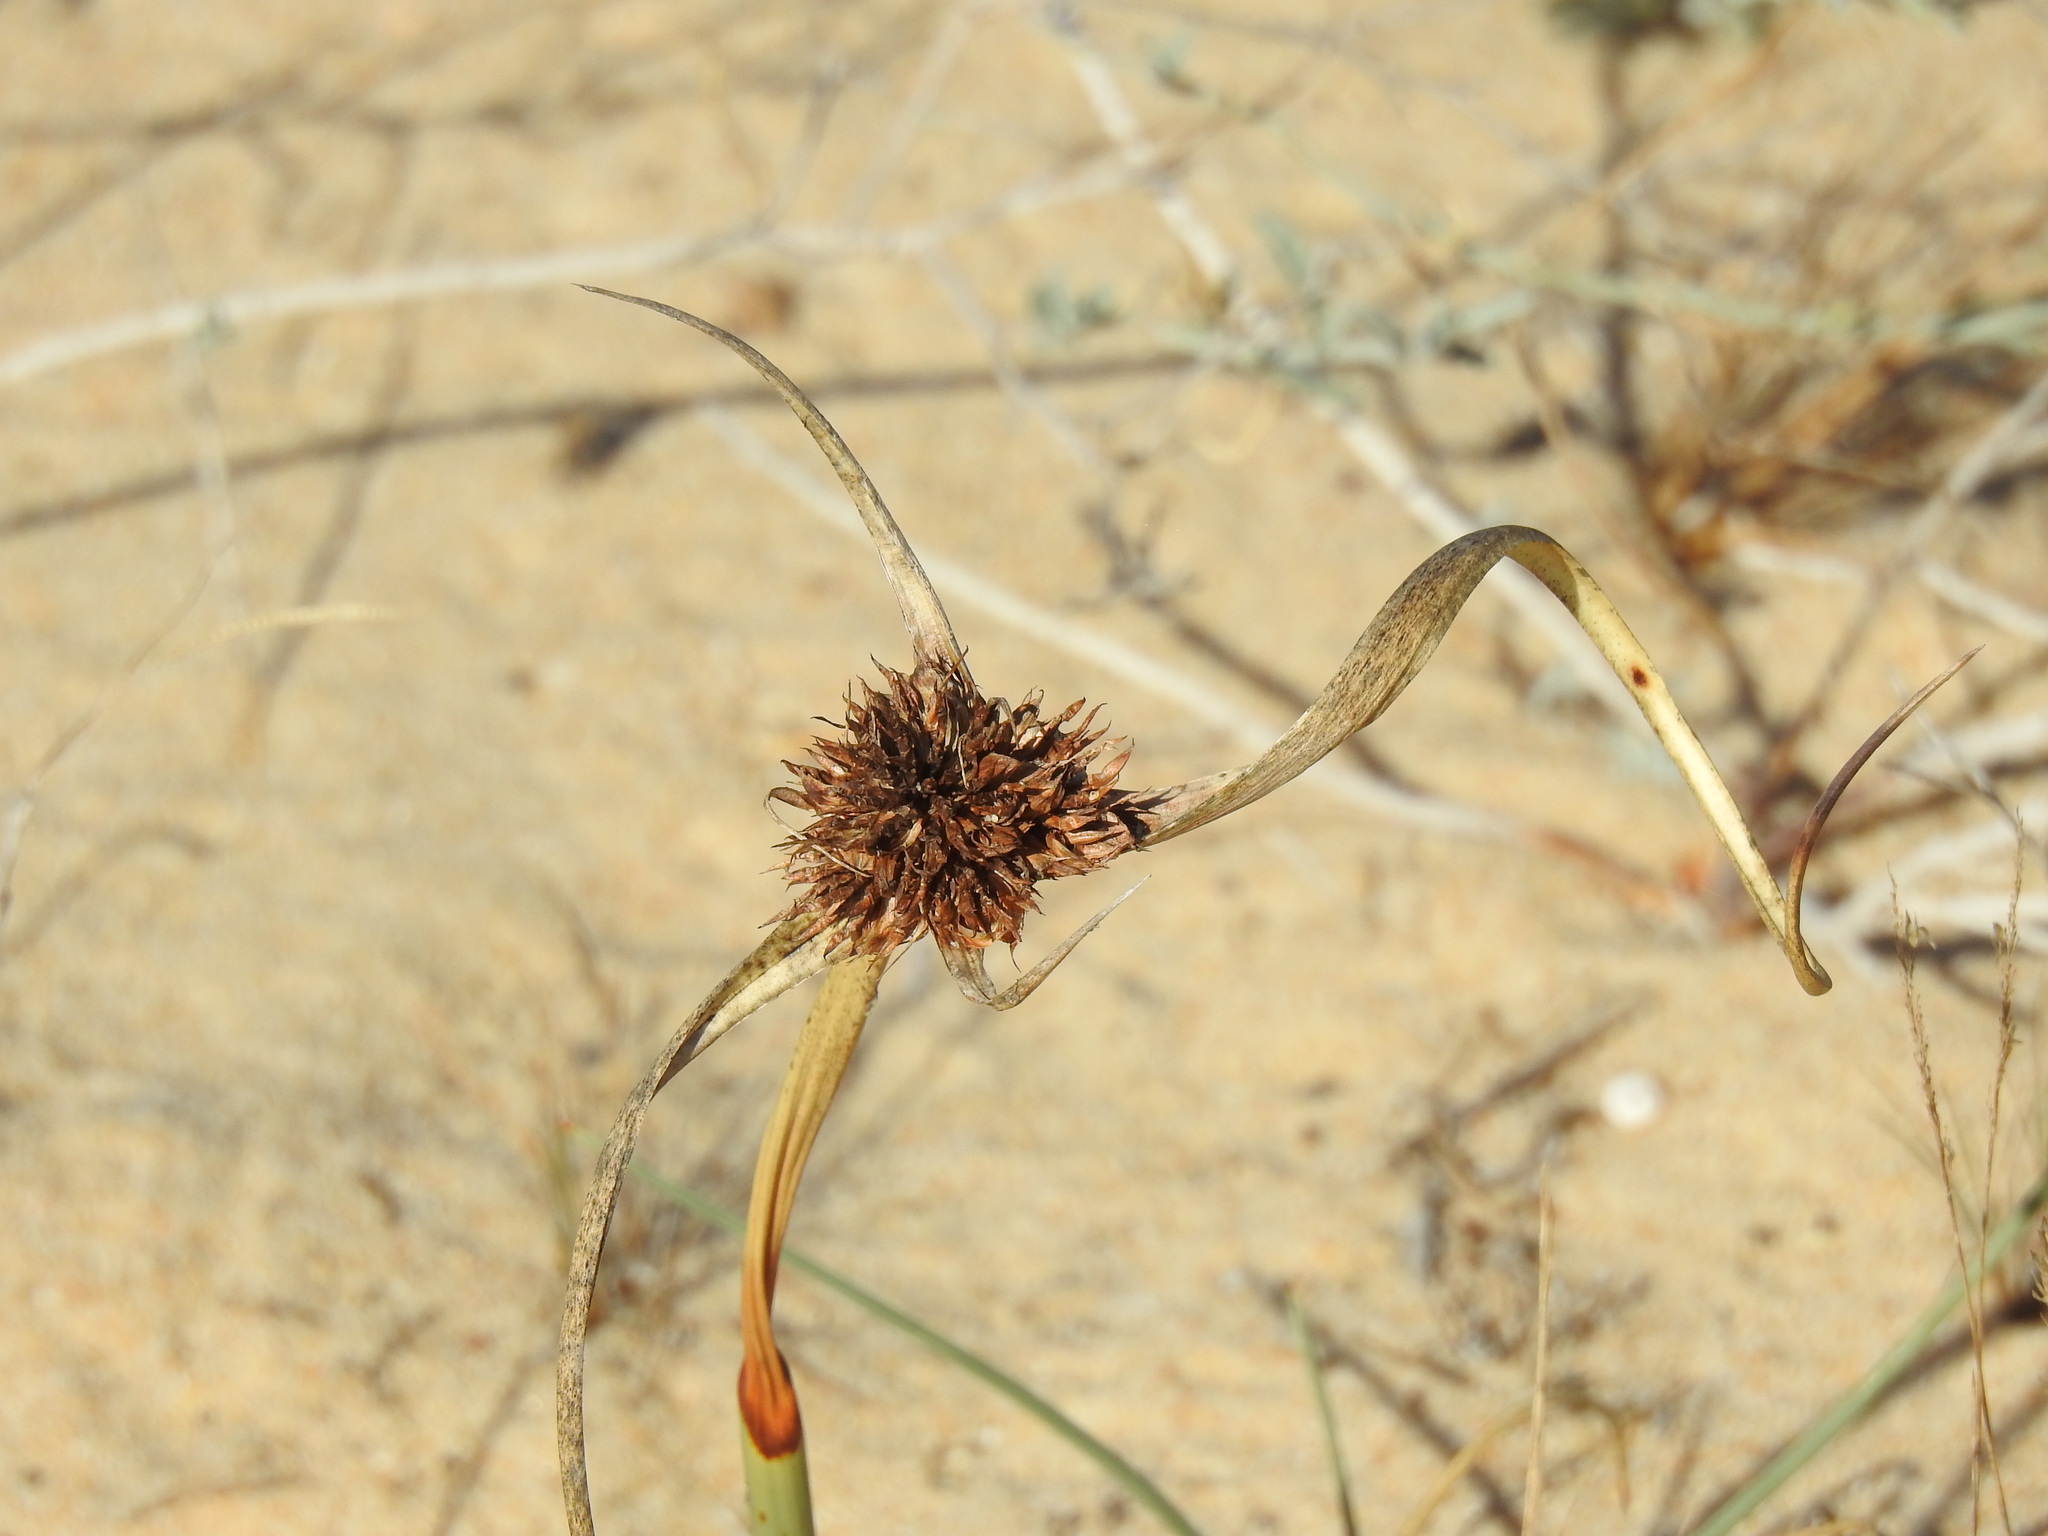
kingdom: Plantae
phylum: Tracheophyta
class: Liliopsida
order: Poales
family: Cyperaceae
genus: Cyperus
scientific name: Cyperus capitatus
